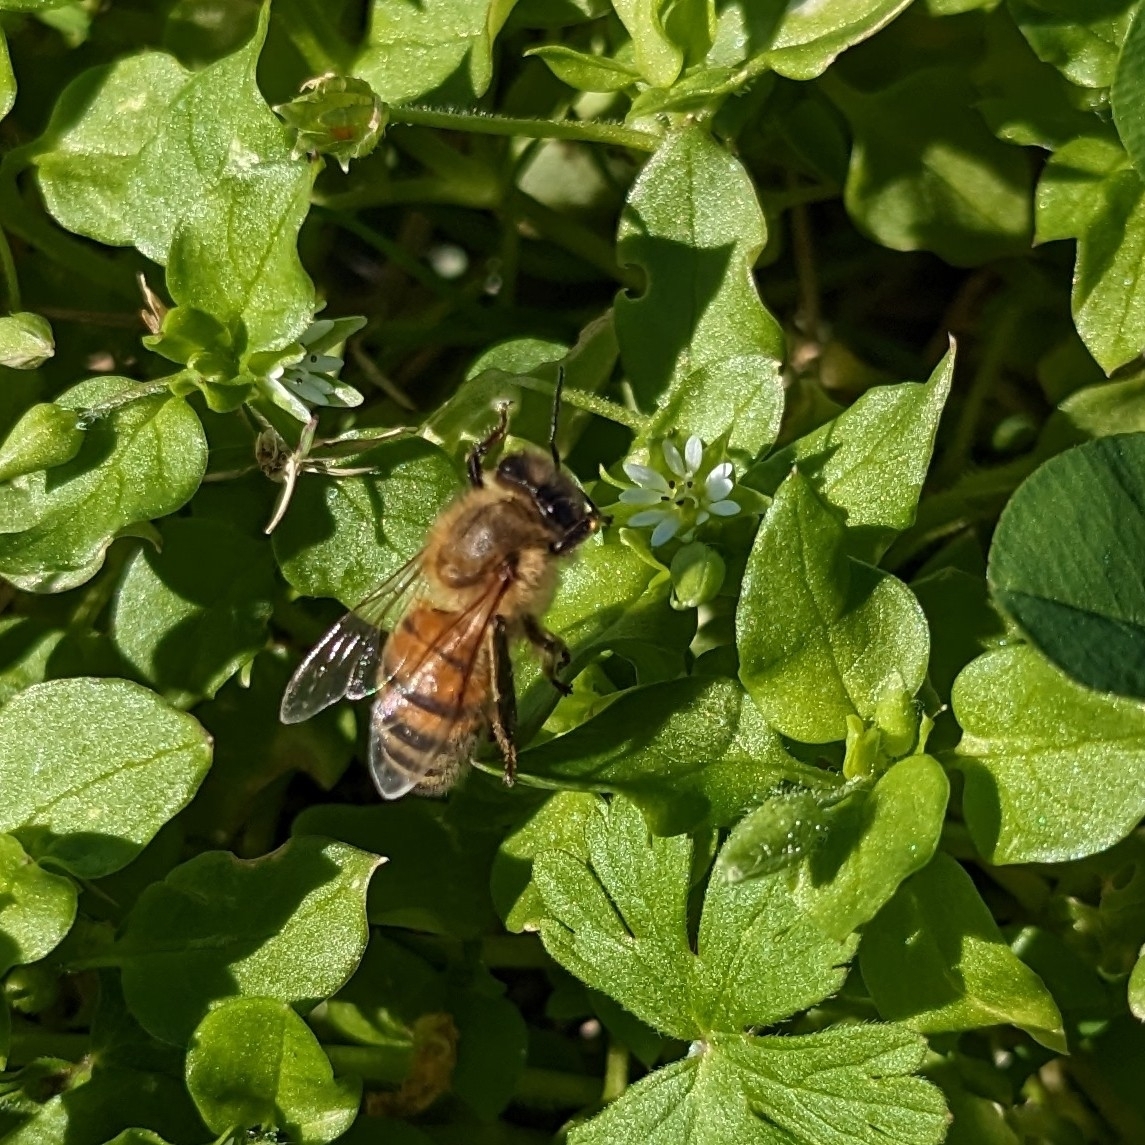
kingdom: Animalia
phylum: Arthropoda
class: Insecta
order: Hymenoptera
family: Apidae
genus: Apis
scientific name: Apis mellifera
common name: Honey bee
